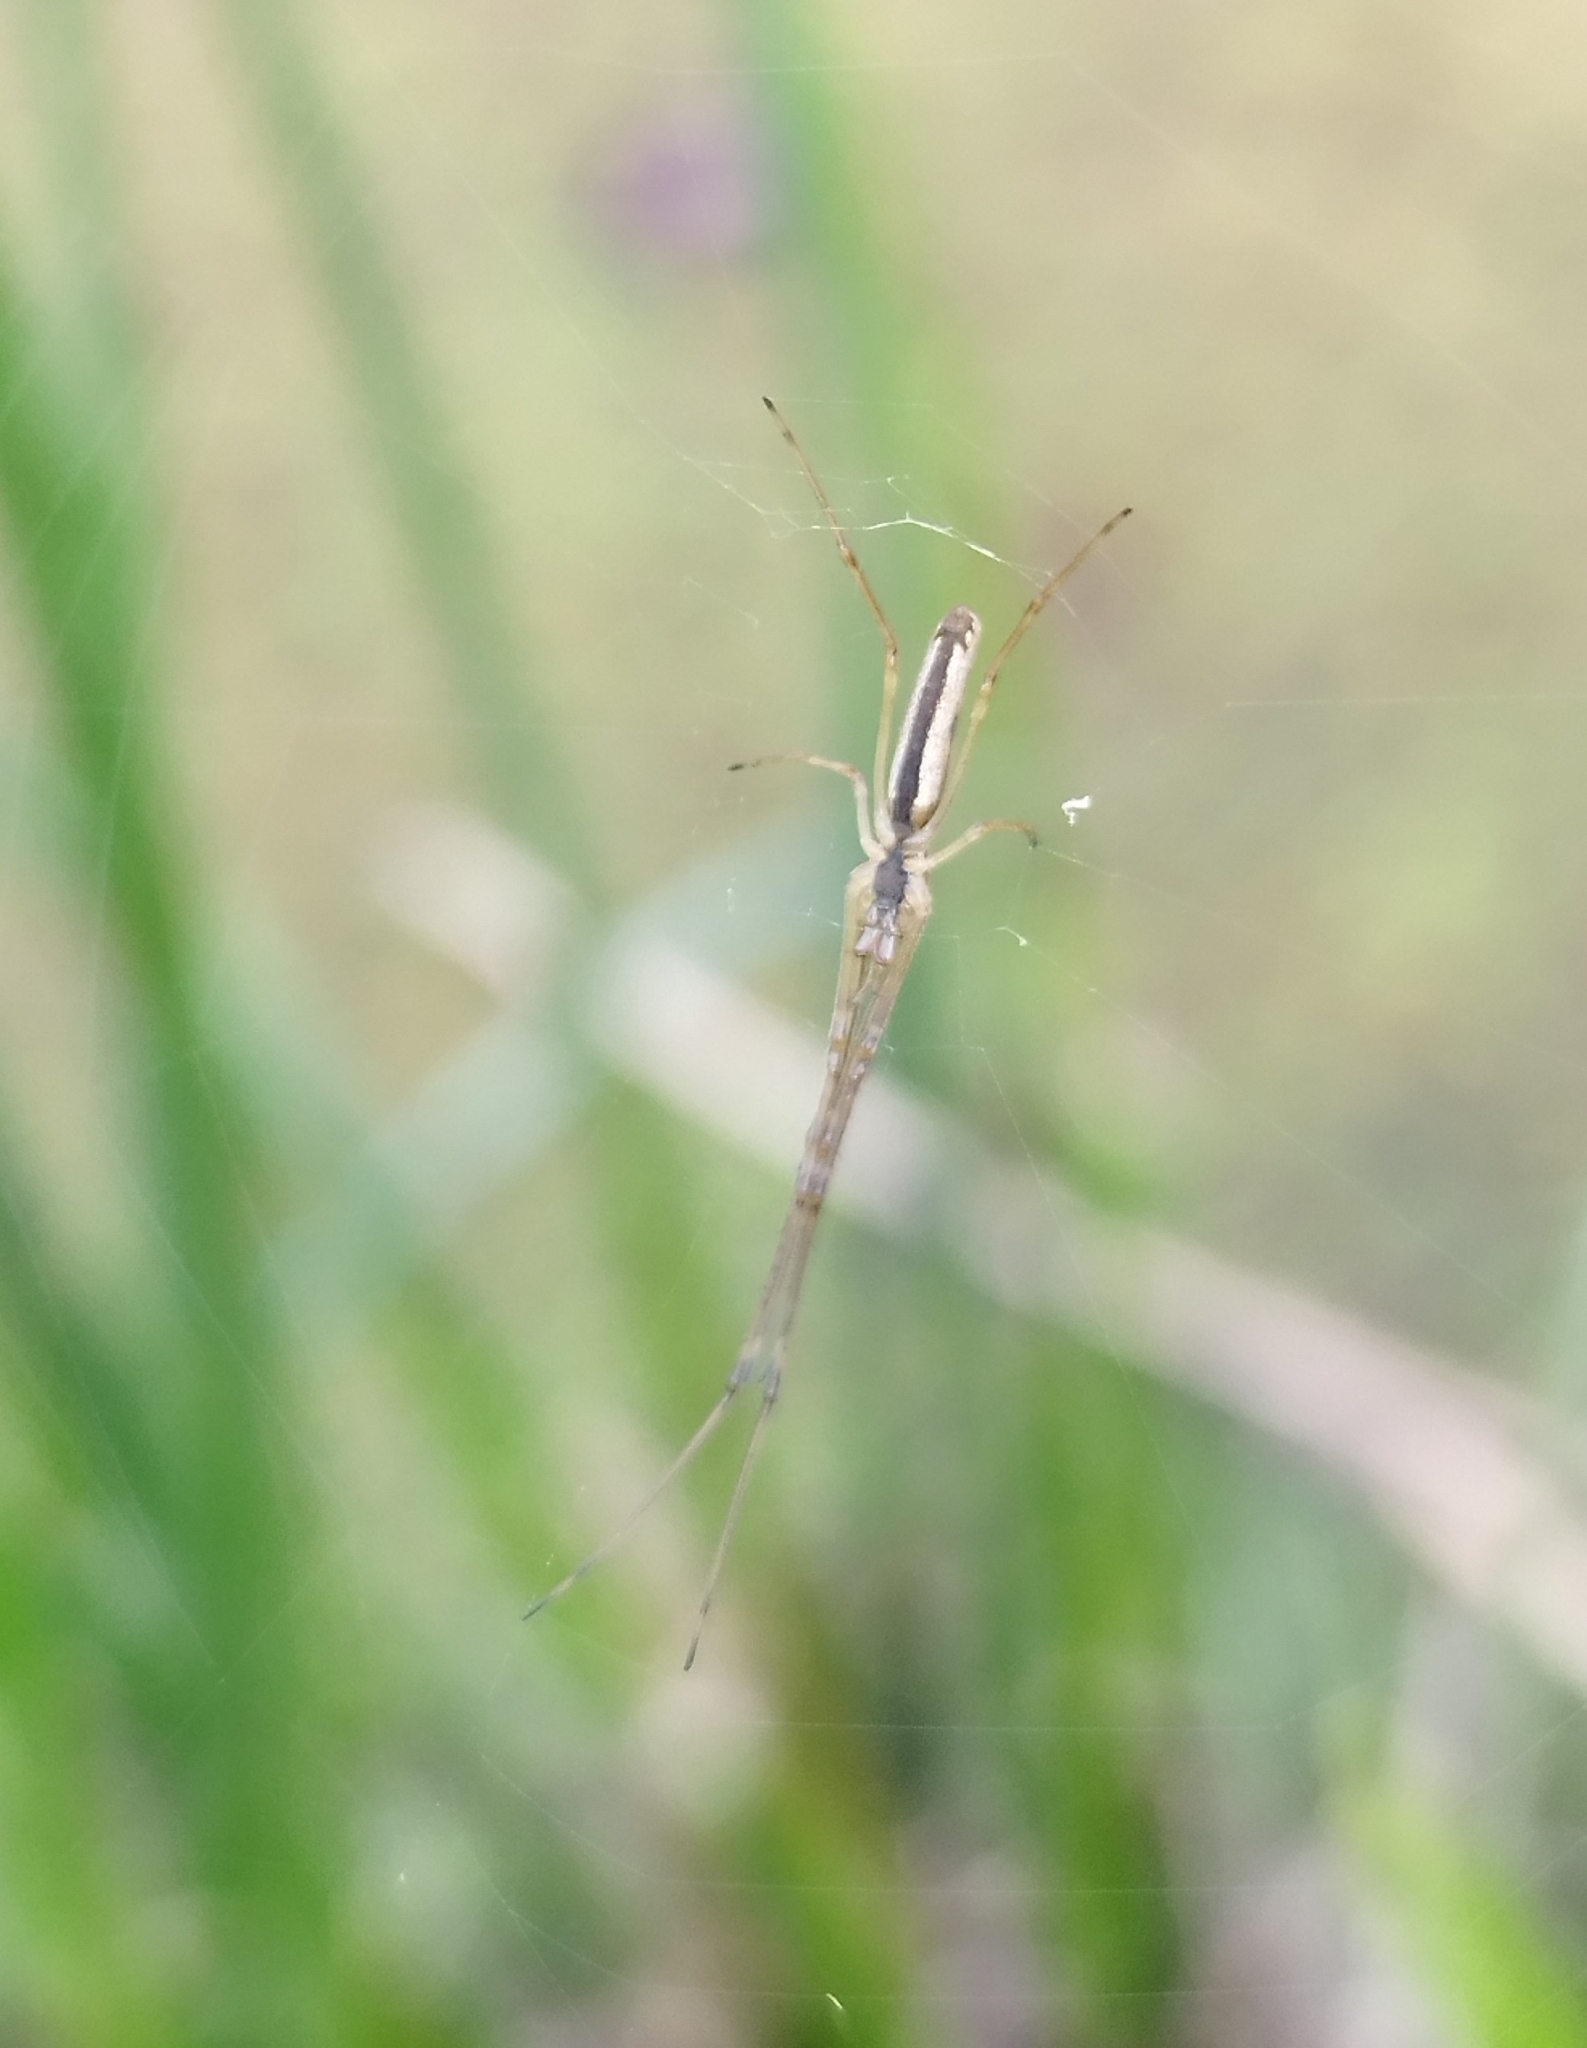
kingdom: Animalia
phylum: Arthropoda
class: Arachnida
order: Araneae
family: Tetragnathidae
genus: Tetragnatha
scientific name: Tetragnatha
